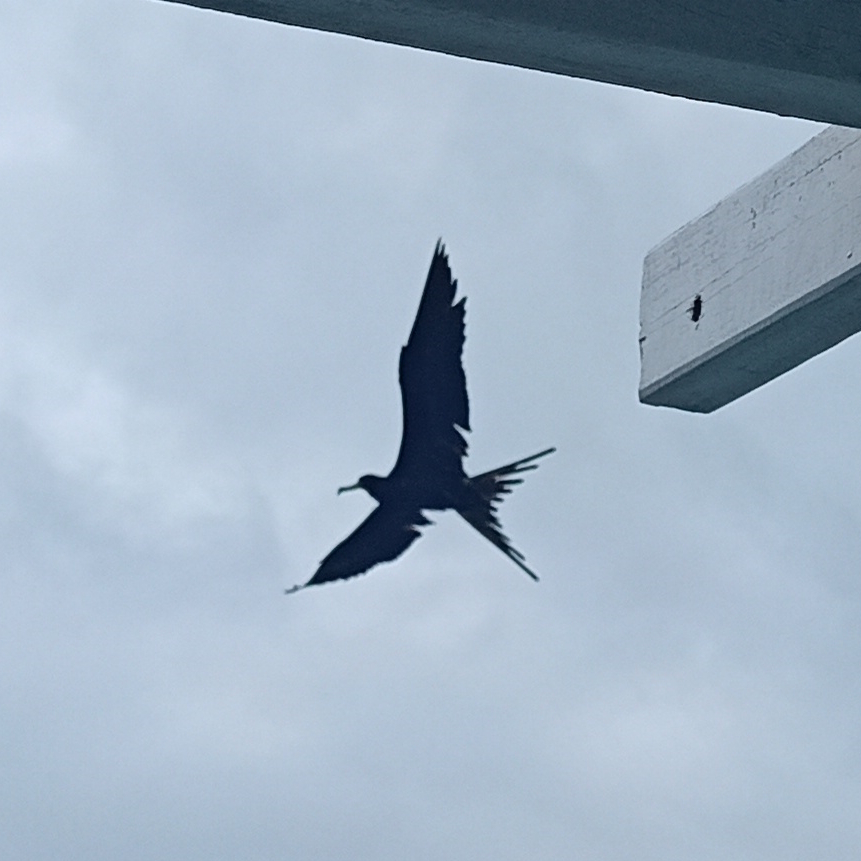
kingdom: Animalia
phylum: Chordata
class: Aves
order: Suliformes
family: Fregatidae
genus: Fregata
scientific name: Fregata magnificens
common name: Magnificent frigatebird
